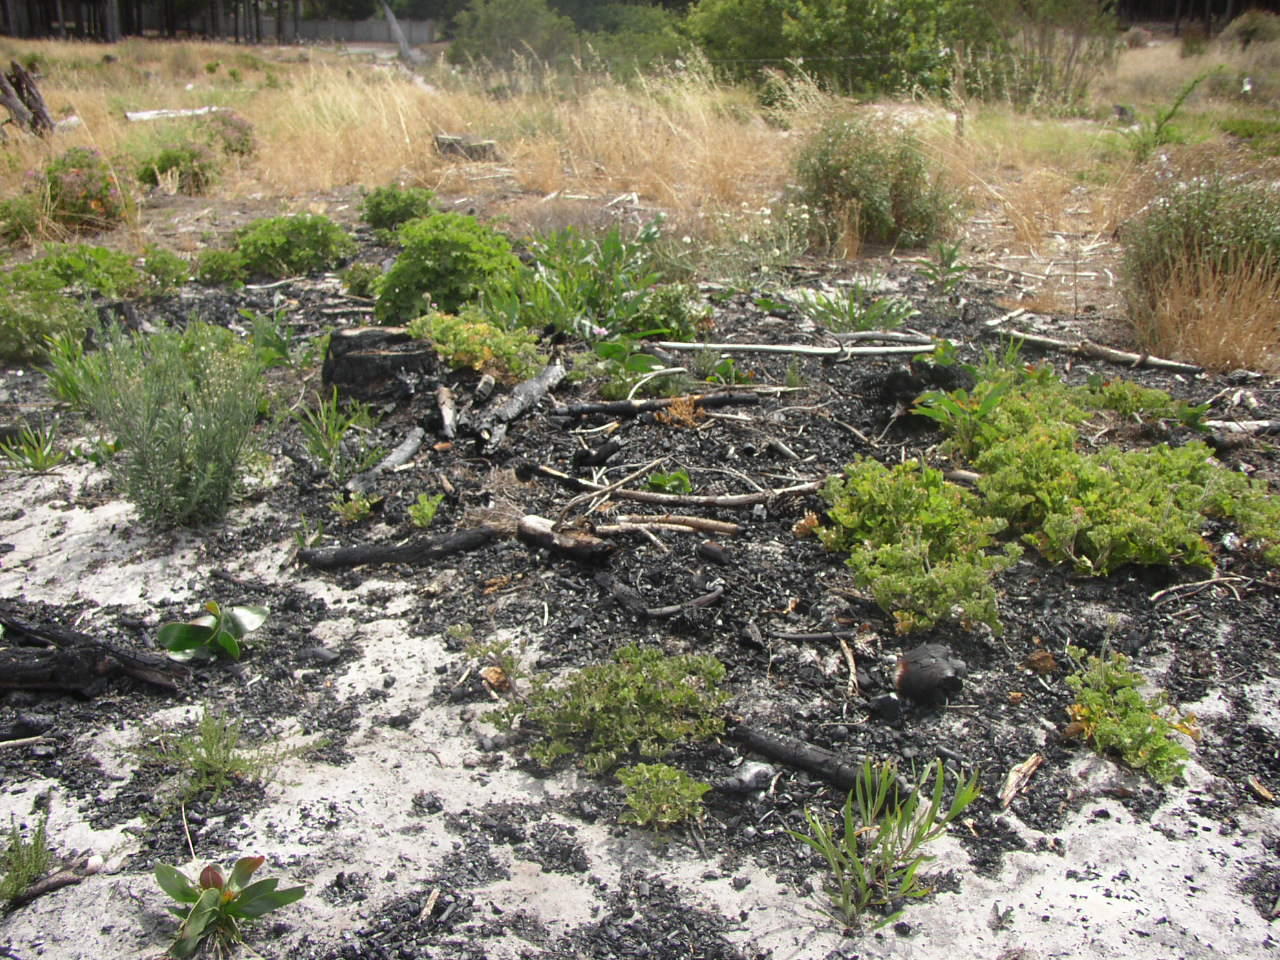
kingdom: Plantae
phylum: Tracheophyta
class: Magnoliopsida
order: Geraniales
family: Geraniaceae
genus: Pelargonium
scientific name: Pelargonium capitatum
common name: Rose scented geranium
